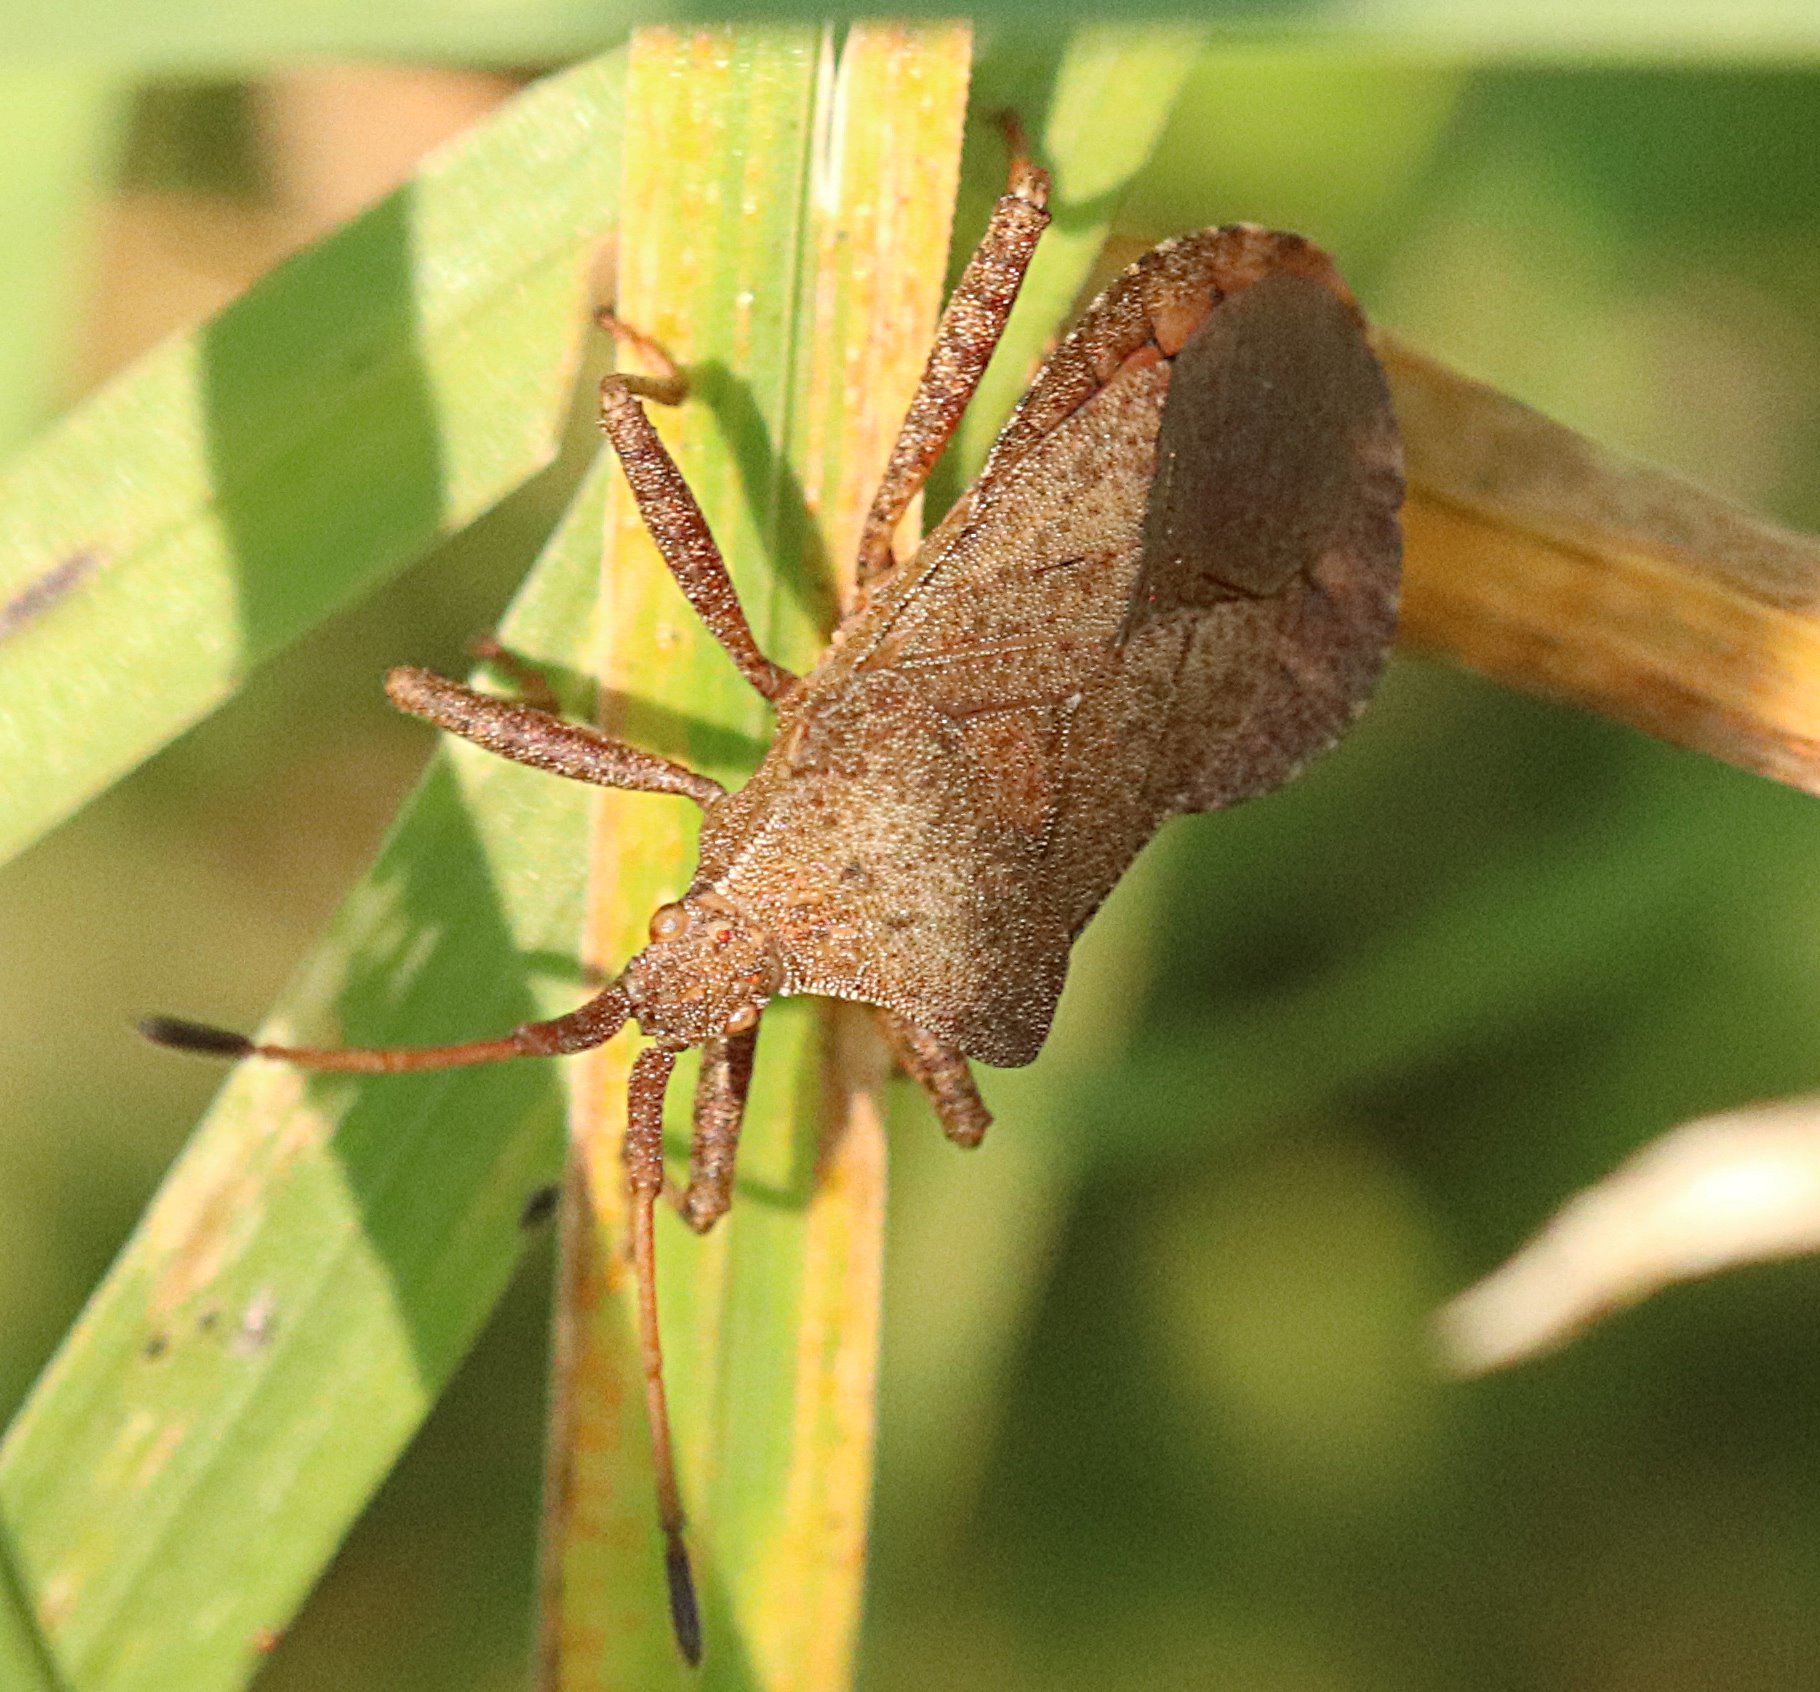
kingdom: Animalia
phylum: Arthropoda
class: Insecta
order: Hemiptera
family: Coreidae
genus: Coreus
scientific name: Coreus marginatus
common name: Dock bug
